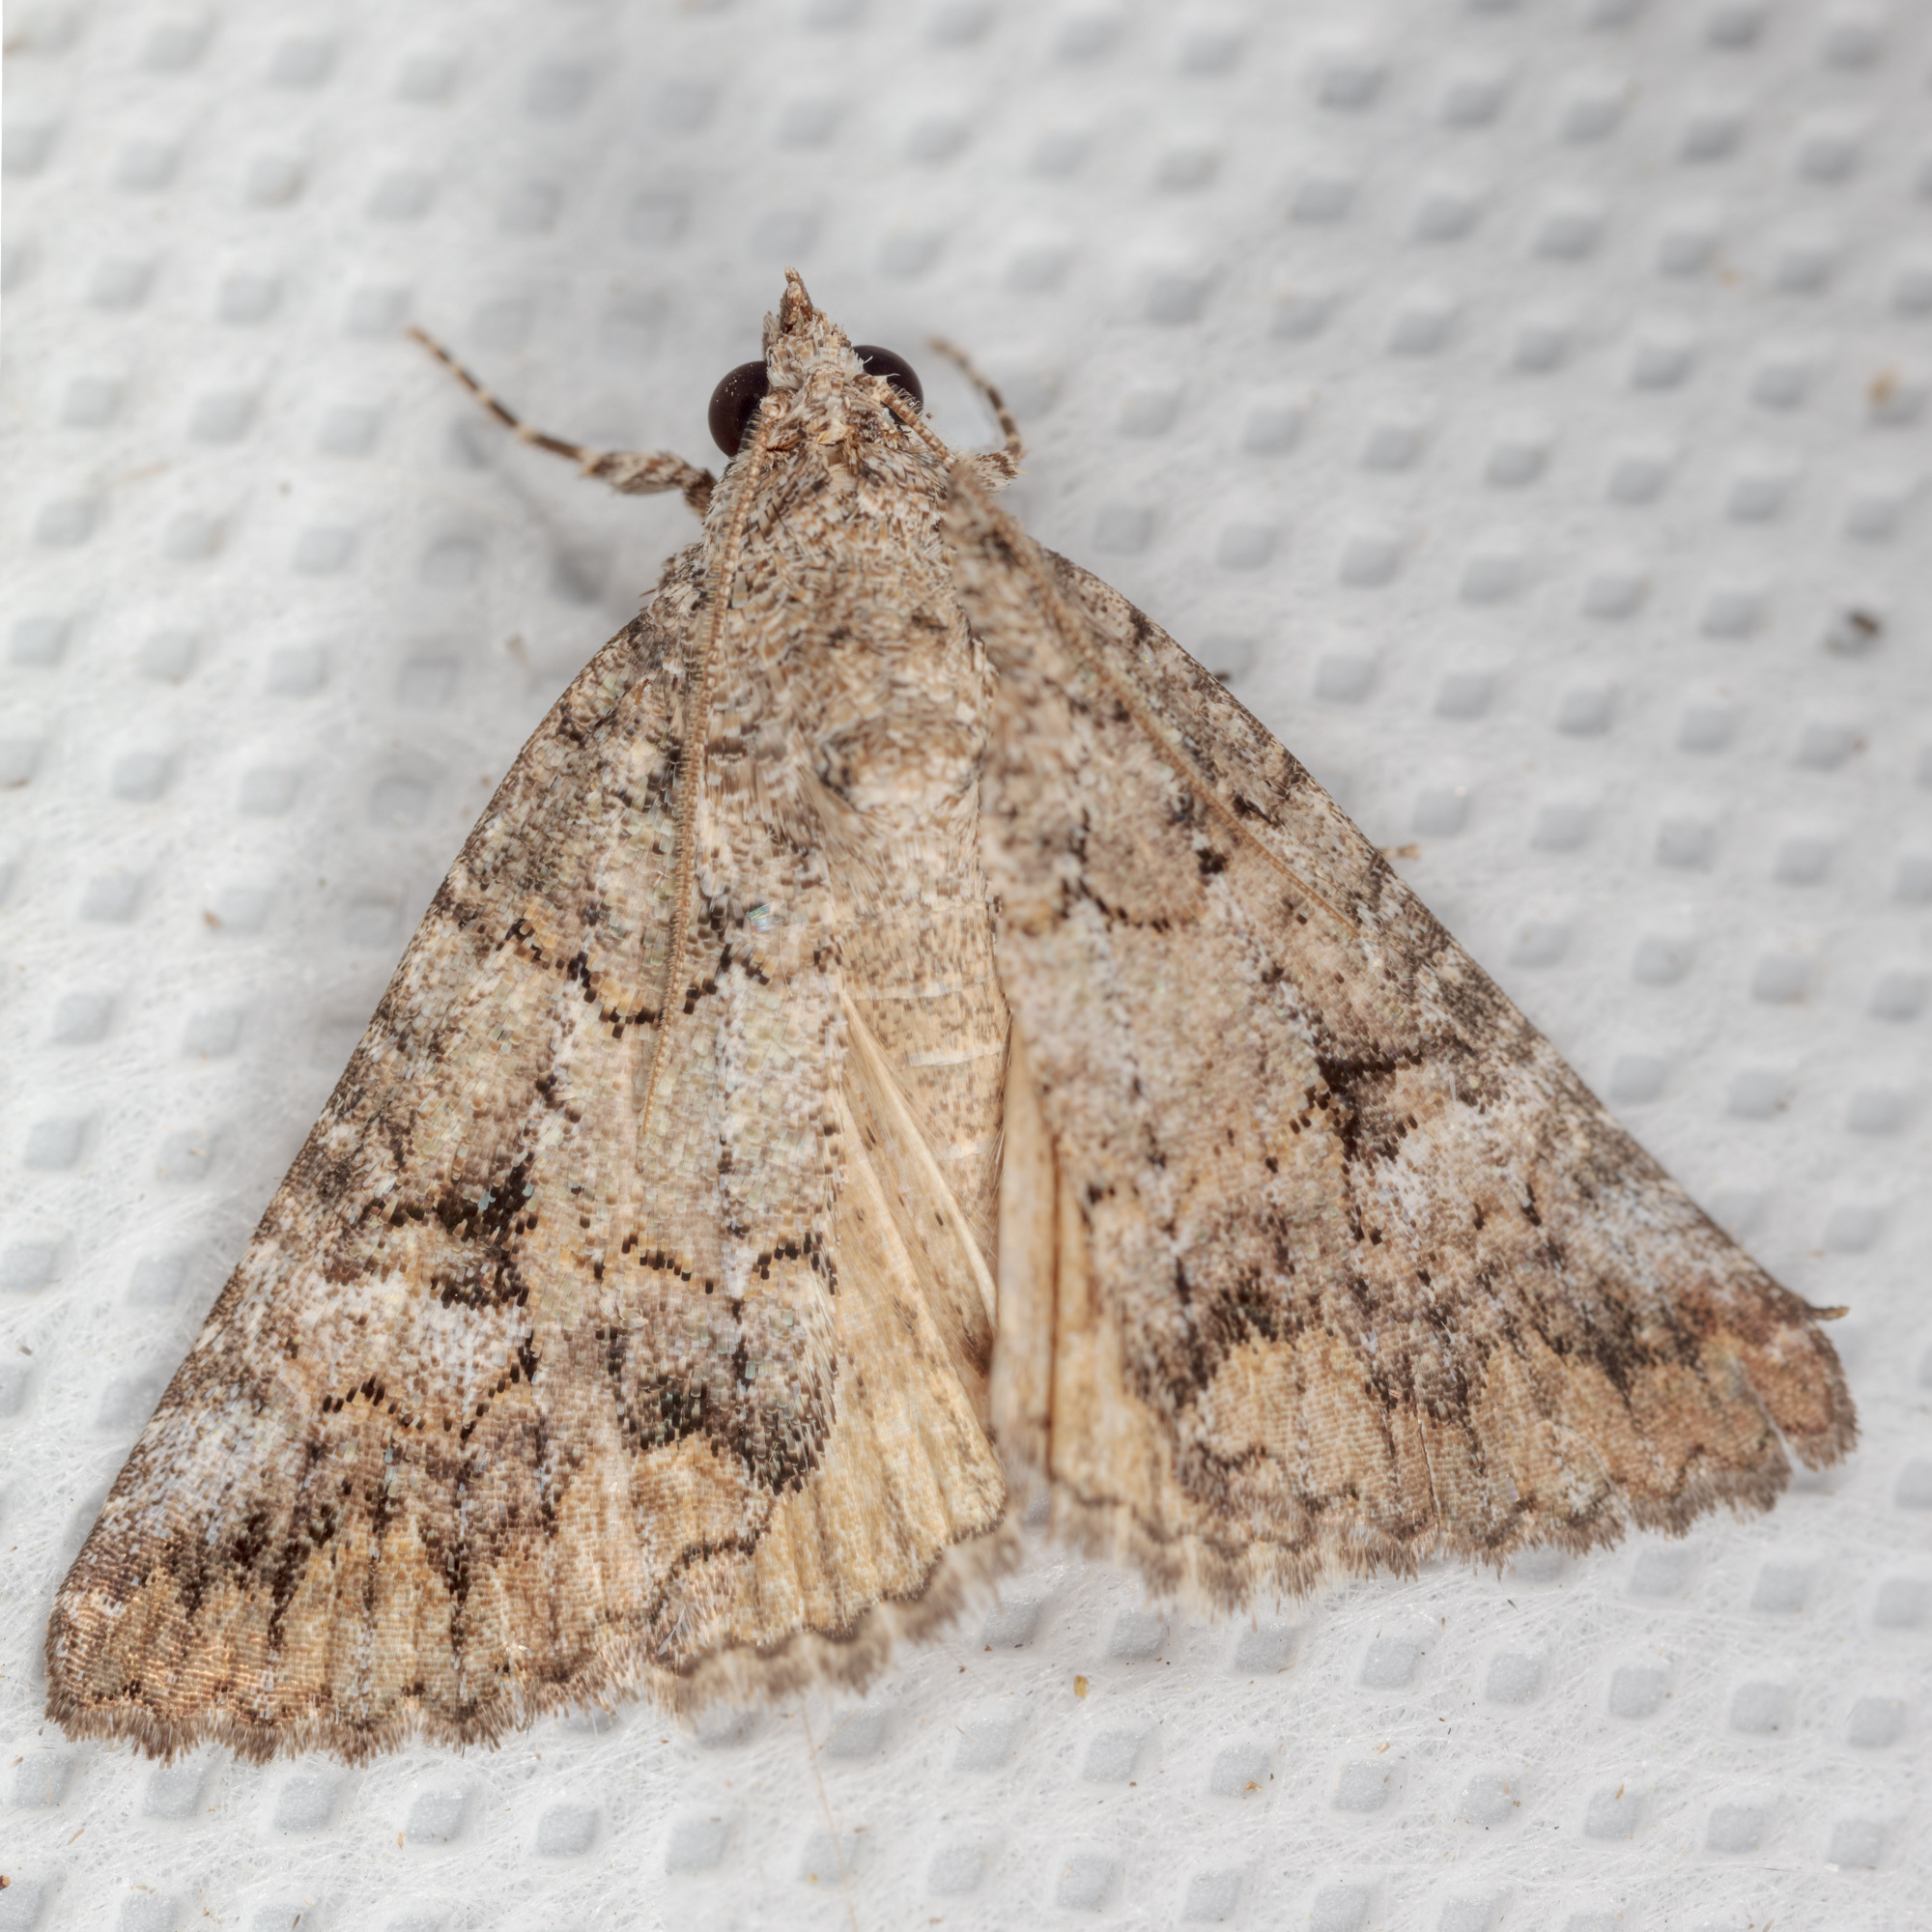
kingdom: Animalia
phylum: Arthropoda
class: Insecta
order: Lepidoptera
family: Erebidae
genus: Eubolina
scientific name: Eubolina impartialis
